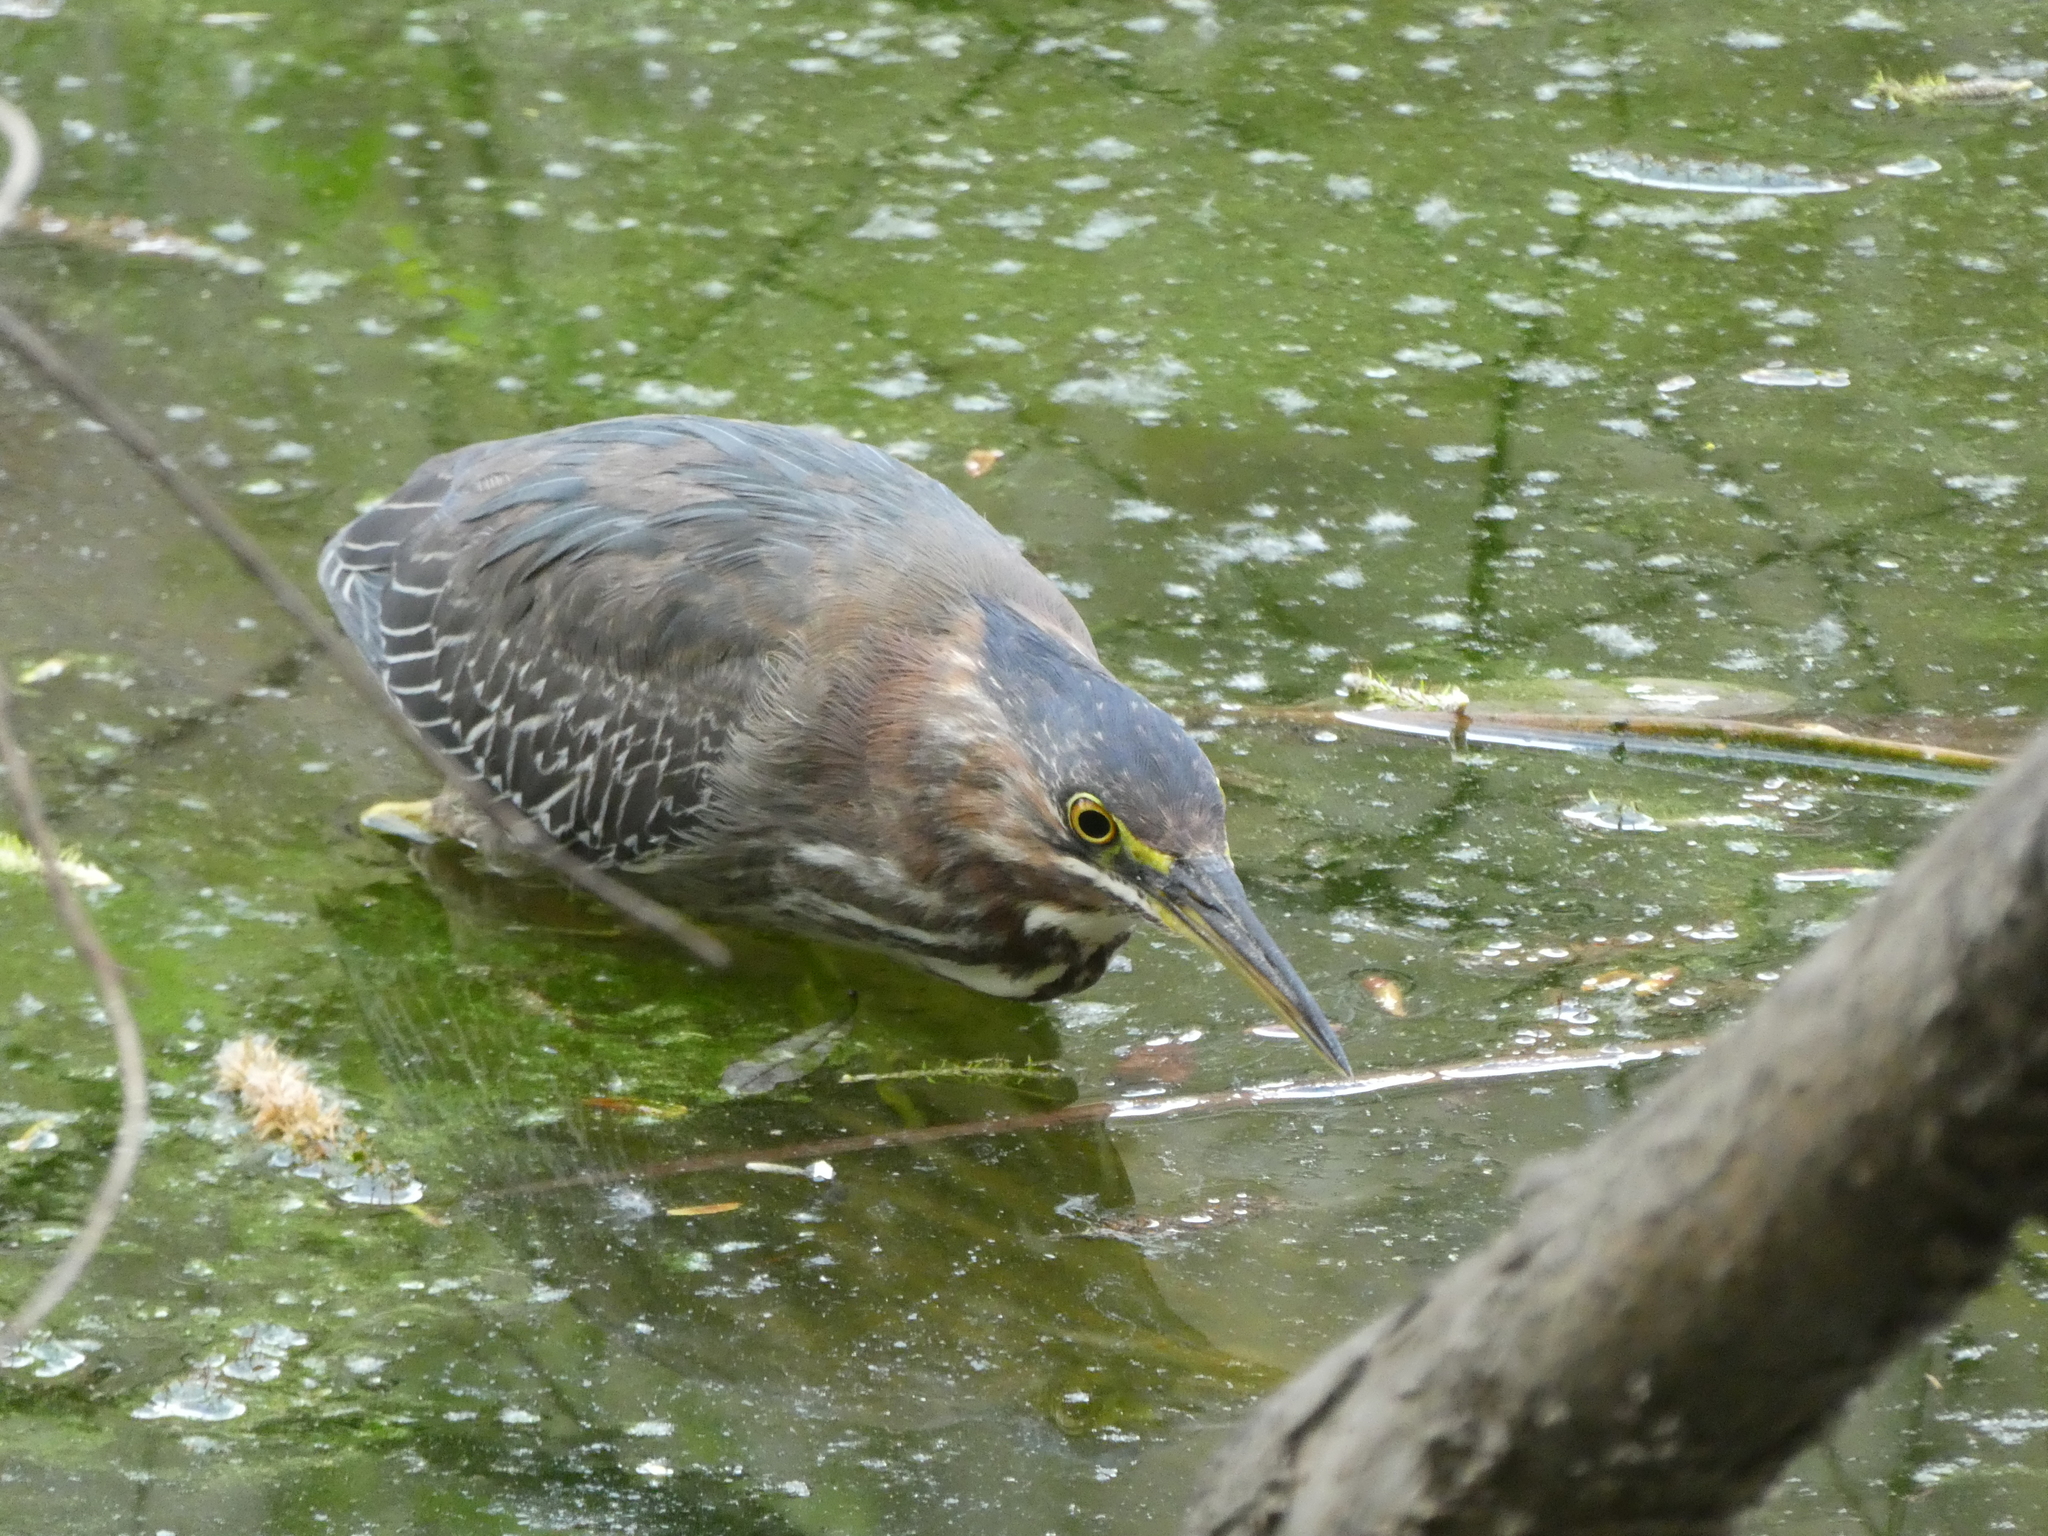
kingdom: Animalia
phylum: Chordata
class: Aves
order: Pelecaniformes
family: Ardeidae
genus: Butorides
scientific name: Butorides virescens
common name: Green heron
